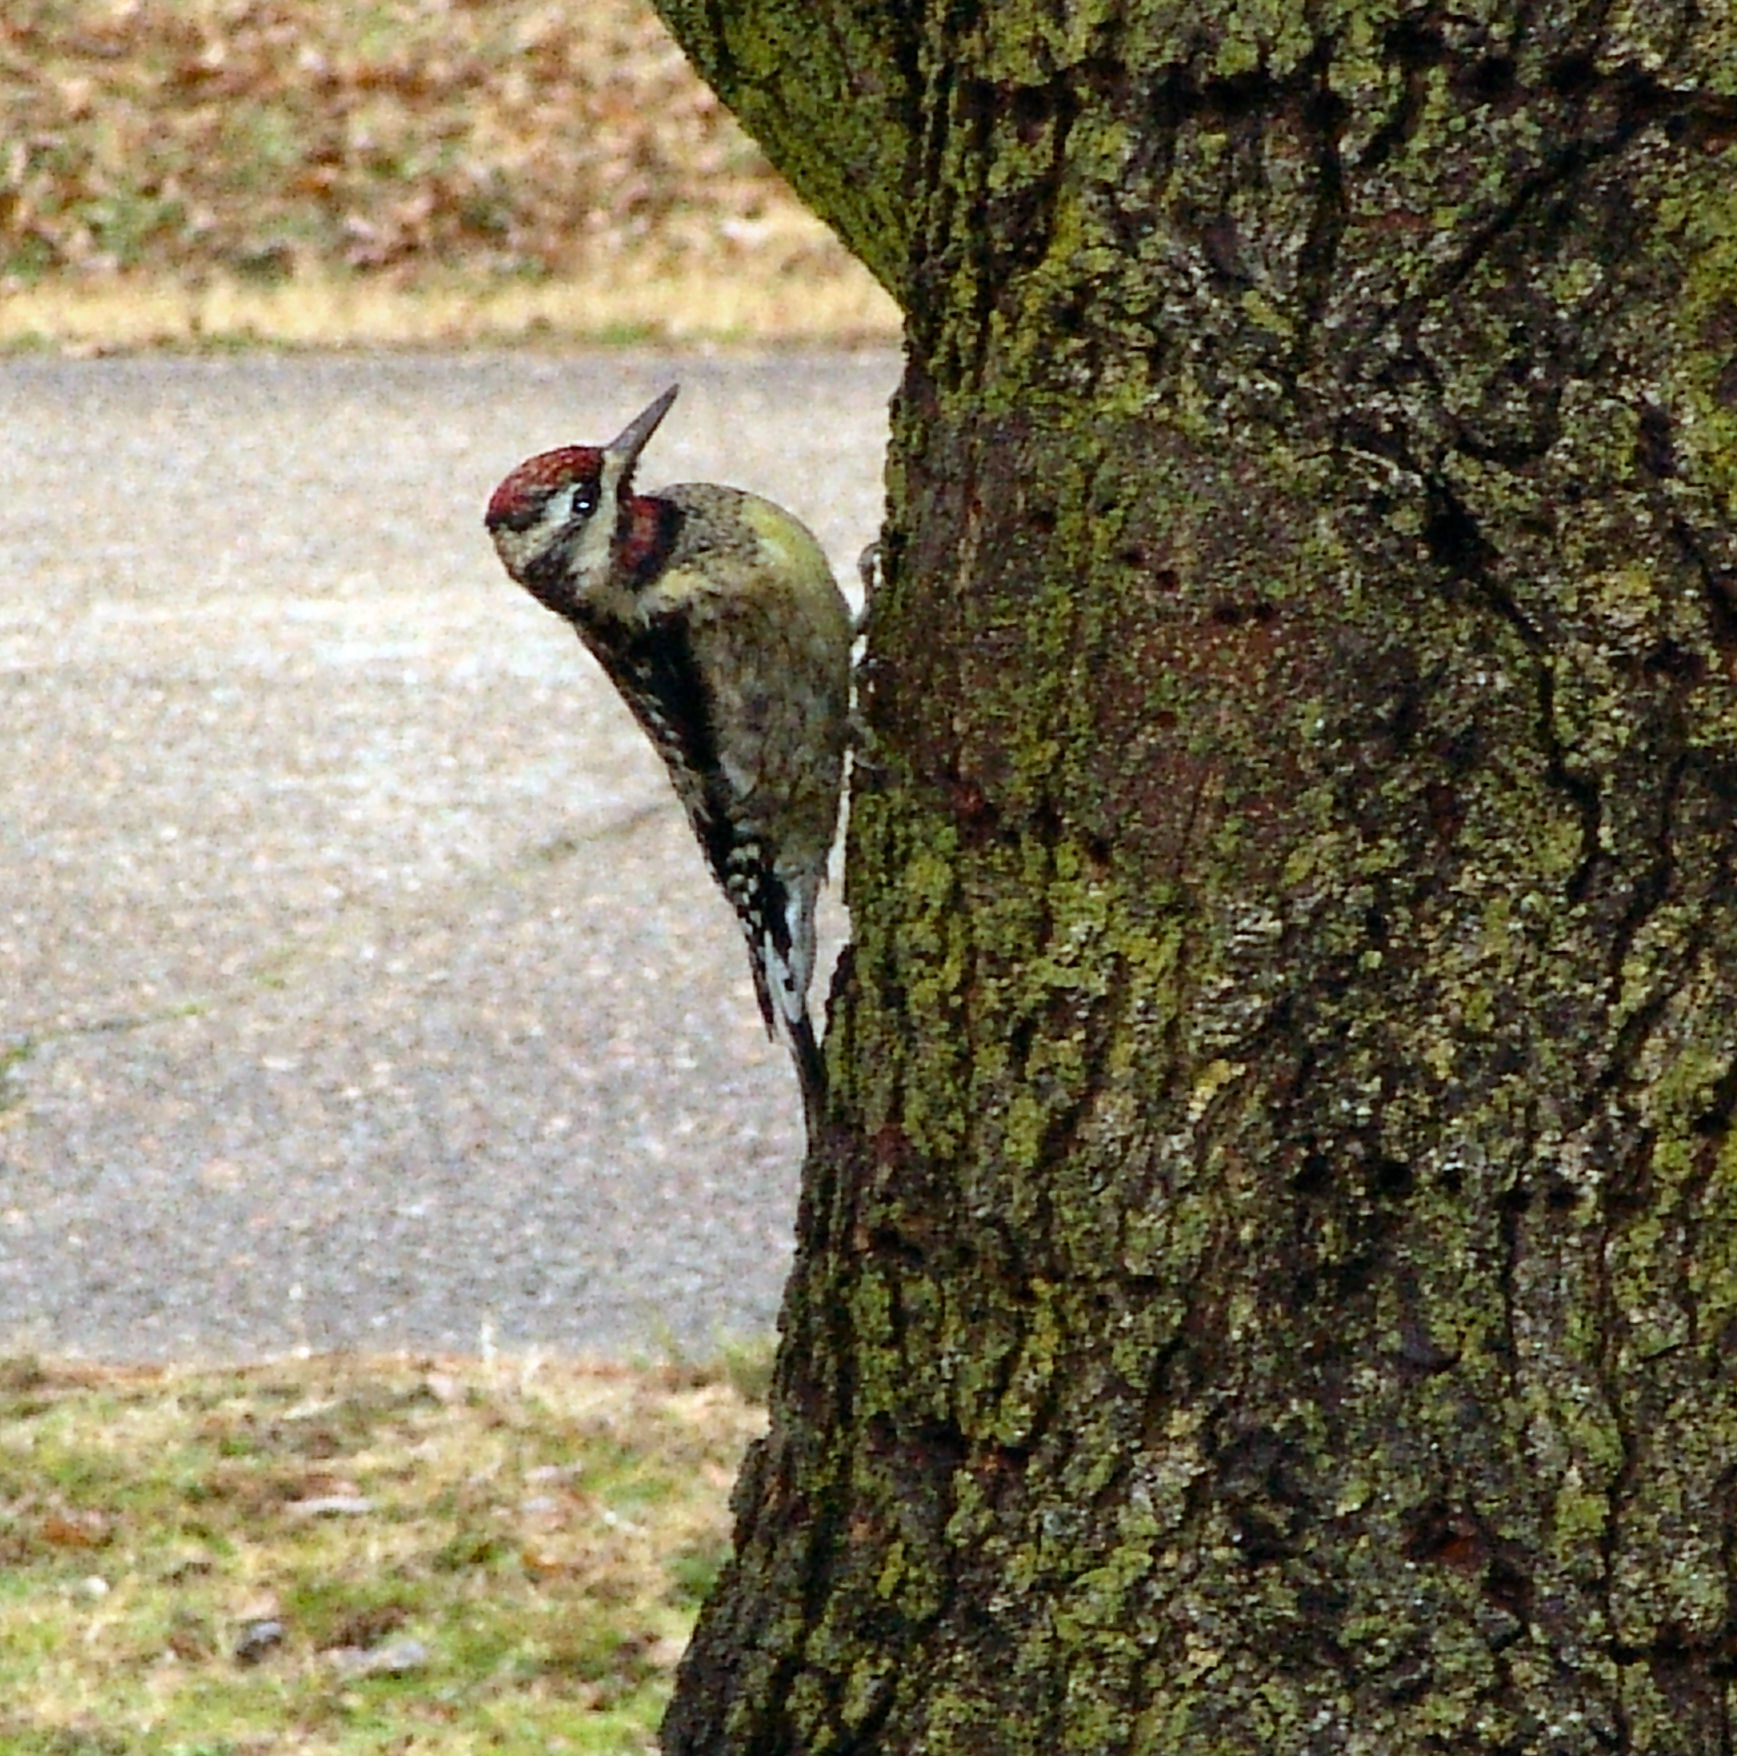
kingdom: Animalia
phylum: Chordata
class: Aves
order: Piciformes
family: Picidae
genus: Sphyrapicus
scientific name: Sphyrapicus varius
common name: Yellow-bellied sapsucker
